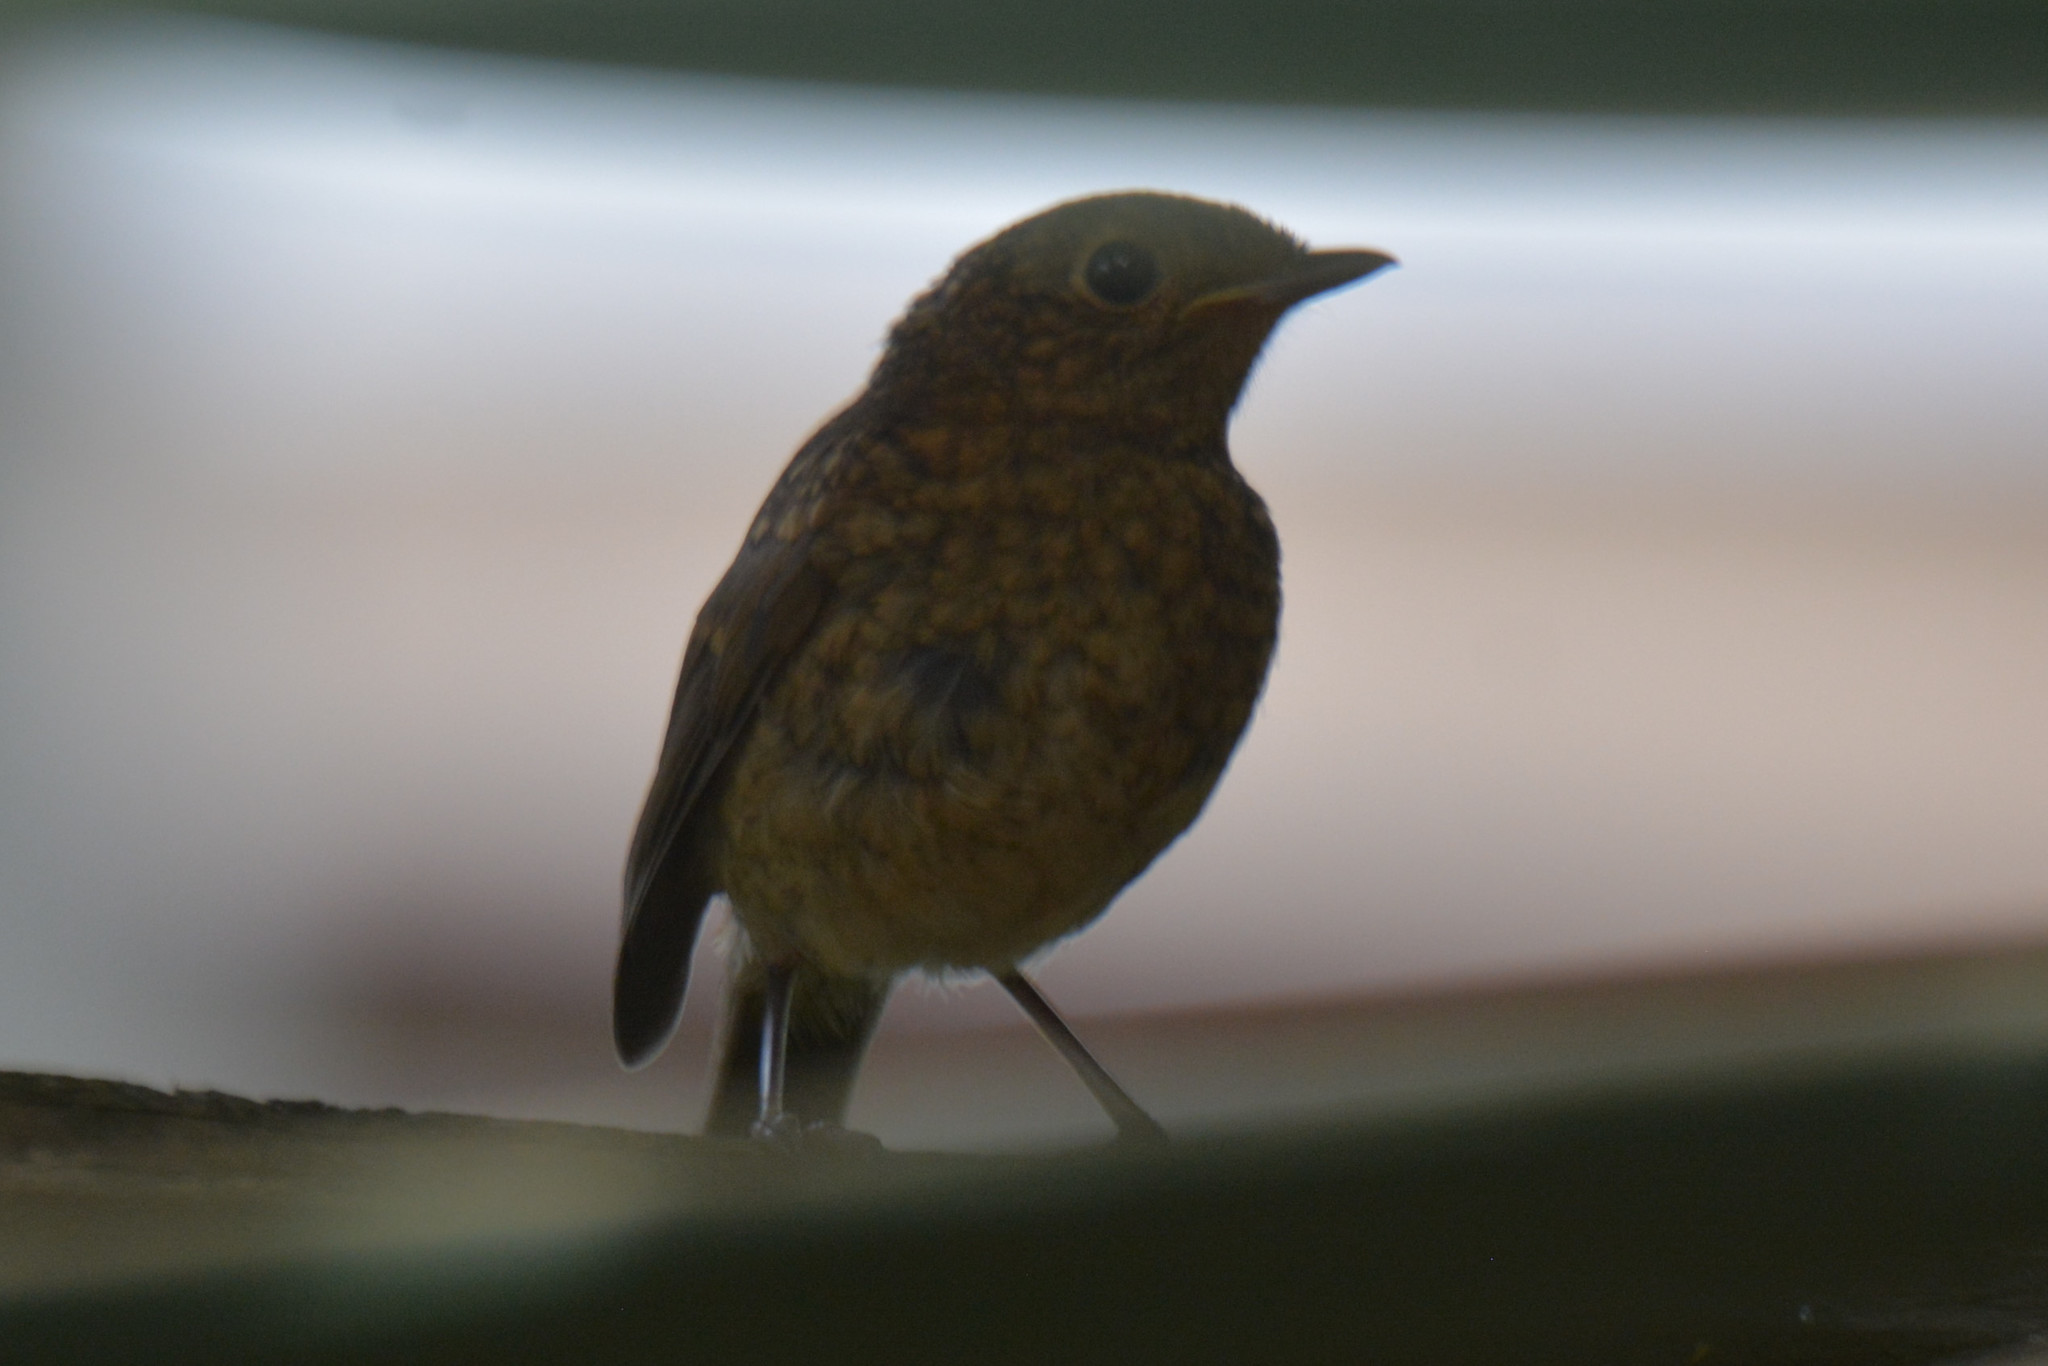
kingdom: Animalia
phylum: Chordata
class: Aves
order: Passeriformes
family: Muscicapidae
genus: Erithacus
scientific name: Erithacus rubecula
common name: European robin
